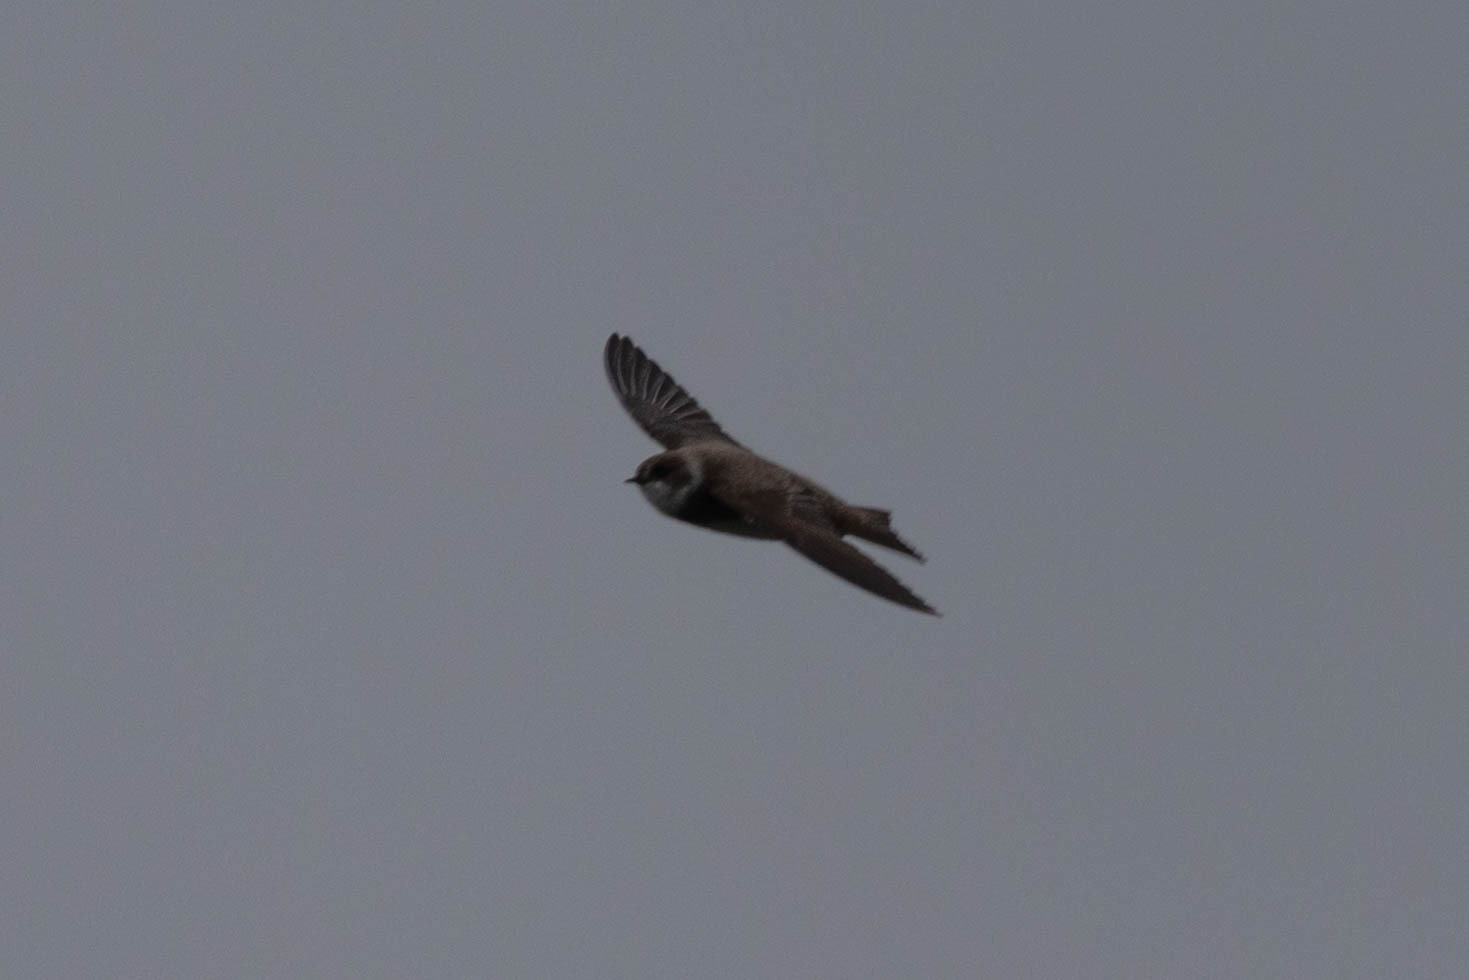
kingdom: Animalia
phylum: Chordata
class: Aves
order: Passeriformes
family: Hirundinidae
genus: Riparia
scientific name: Riparia riparia
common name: Sand martin
